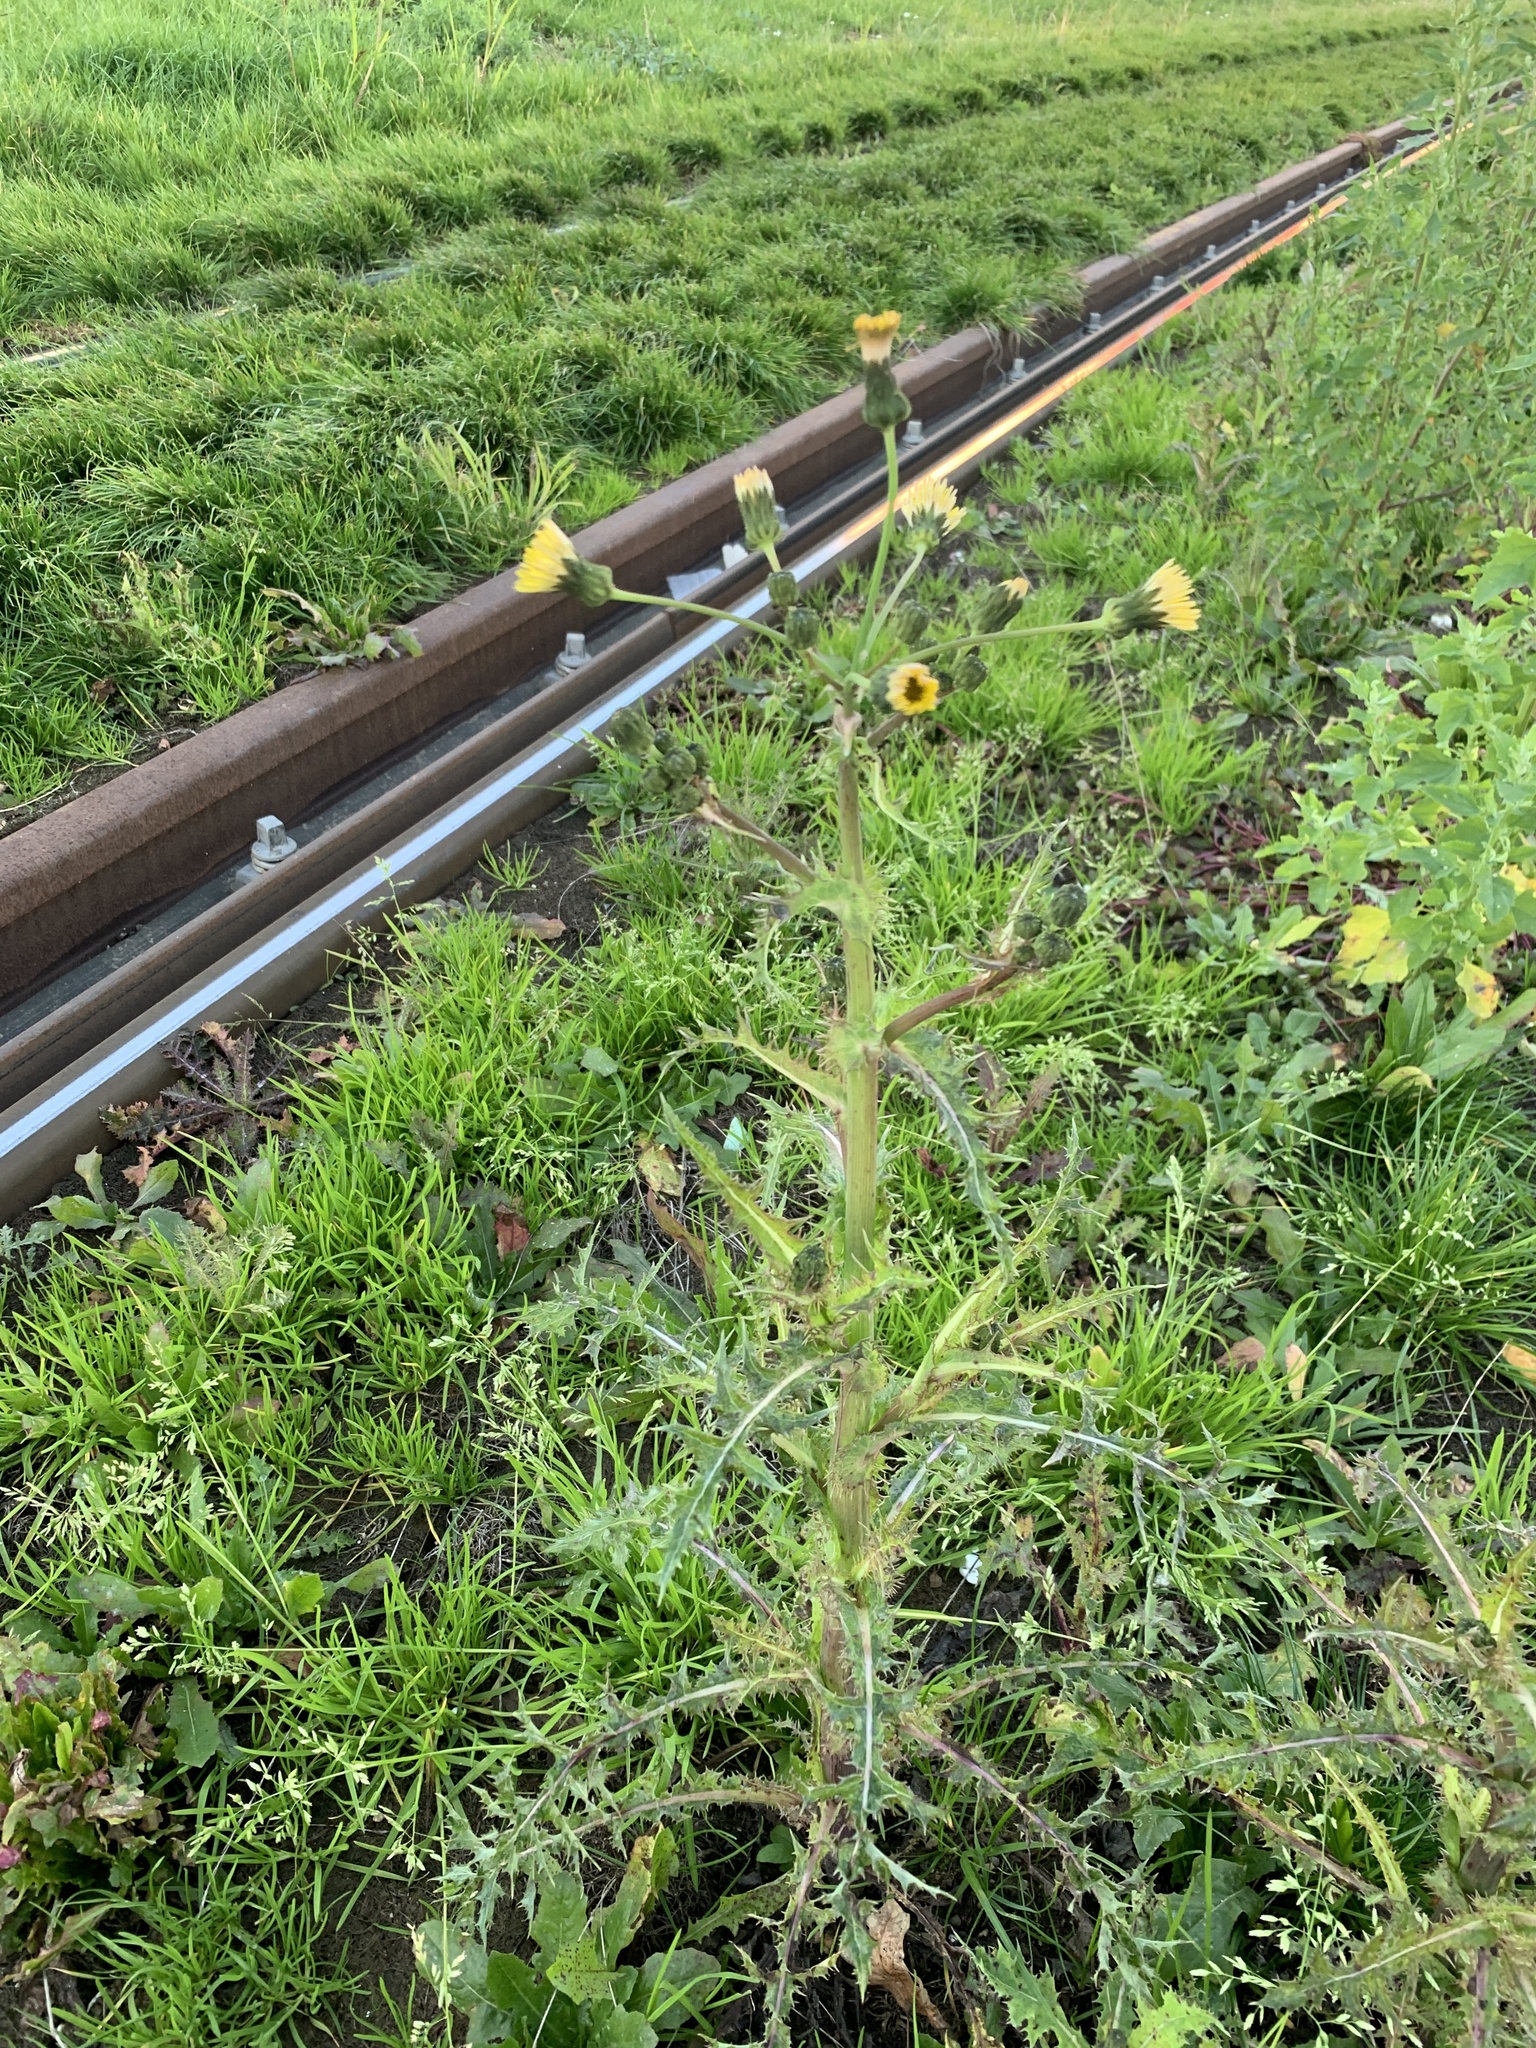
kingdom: Plantae
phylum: Tracheophyta
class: Magnoliopsida
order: Asterales
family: Asteraceae
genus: Sonchus
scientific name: Sonchus asper
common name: Prickly sow-thistle
